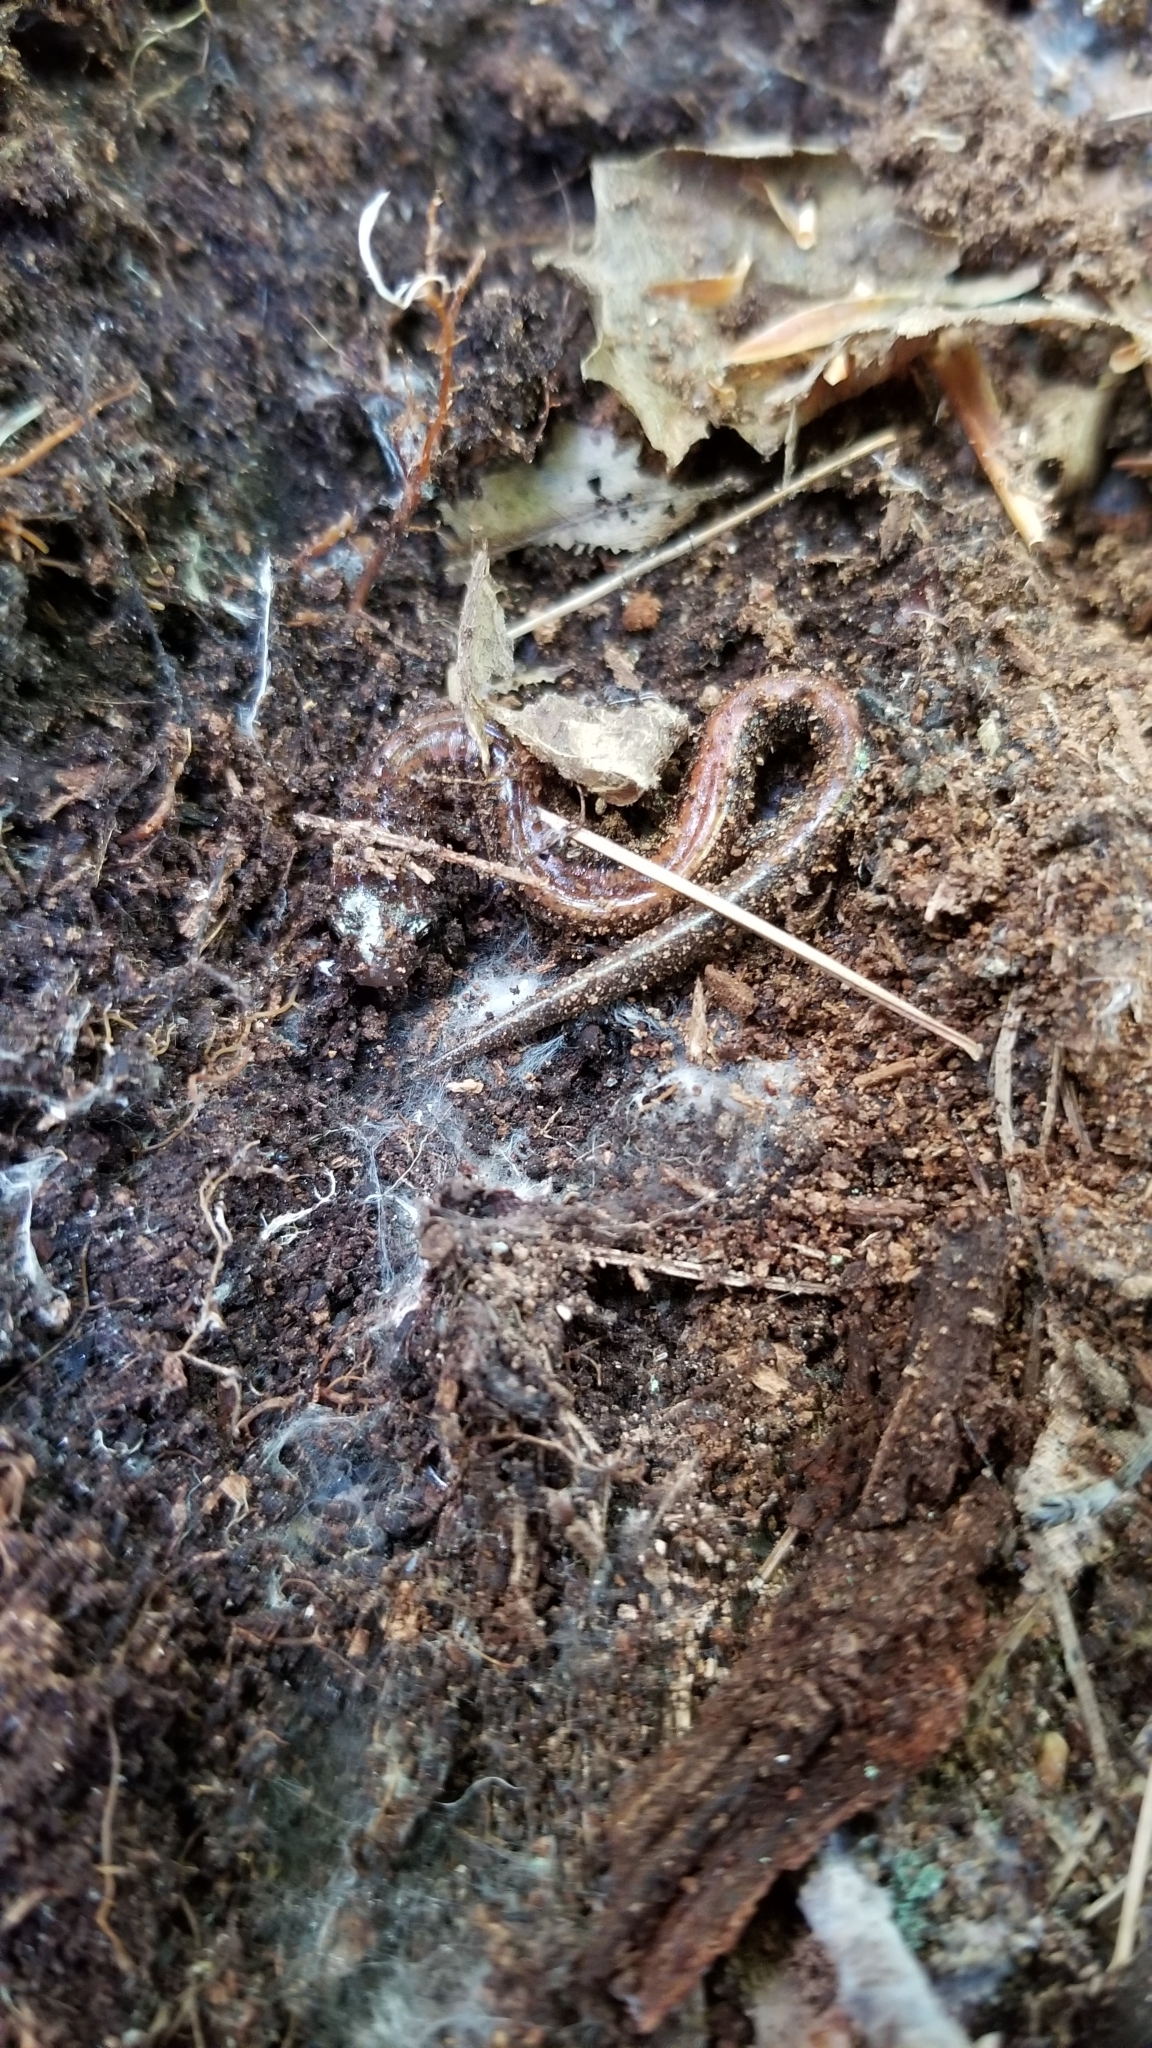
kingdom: Animalia
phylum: Chordata
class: Amphibia
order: Caudata
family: Plethodontidae
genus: Plethodon
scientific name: Plethodon cinereus
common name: Redback salamander
